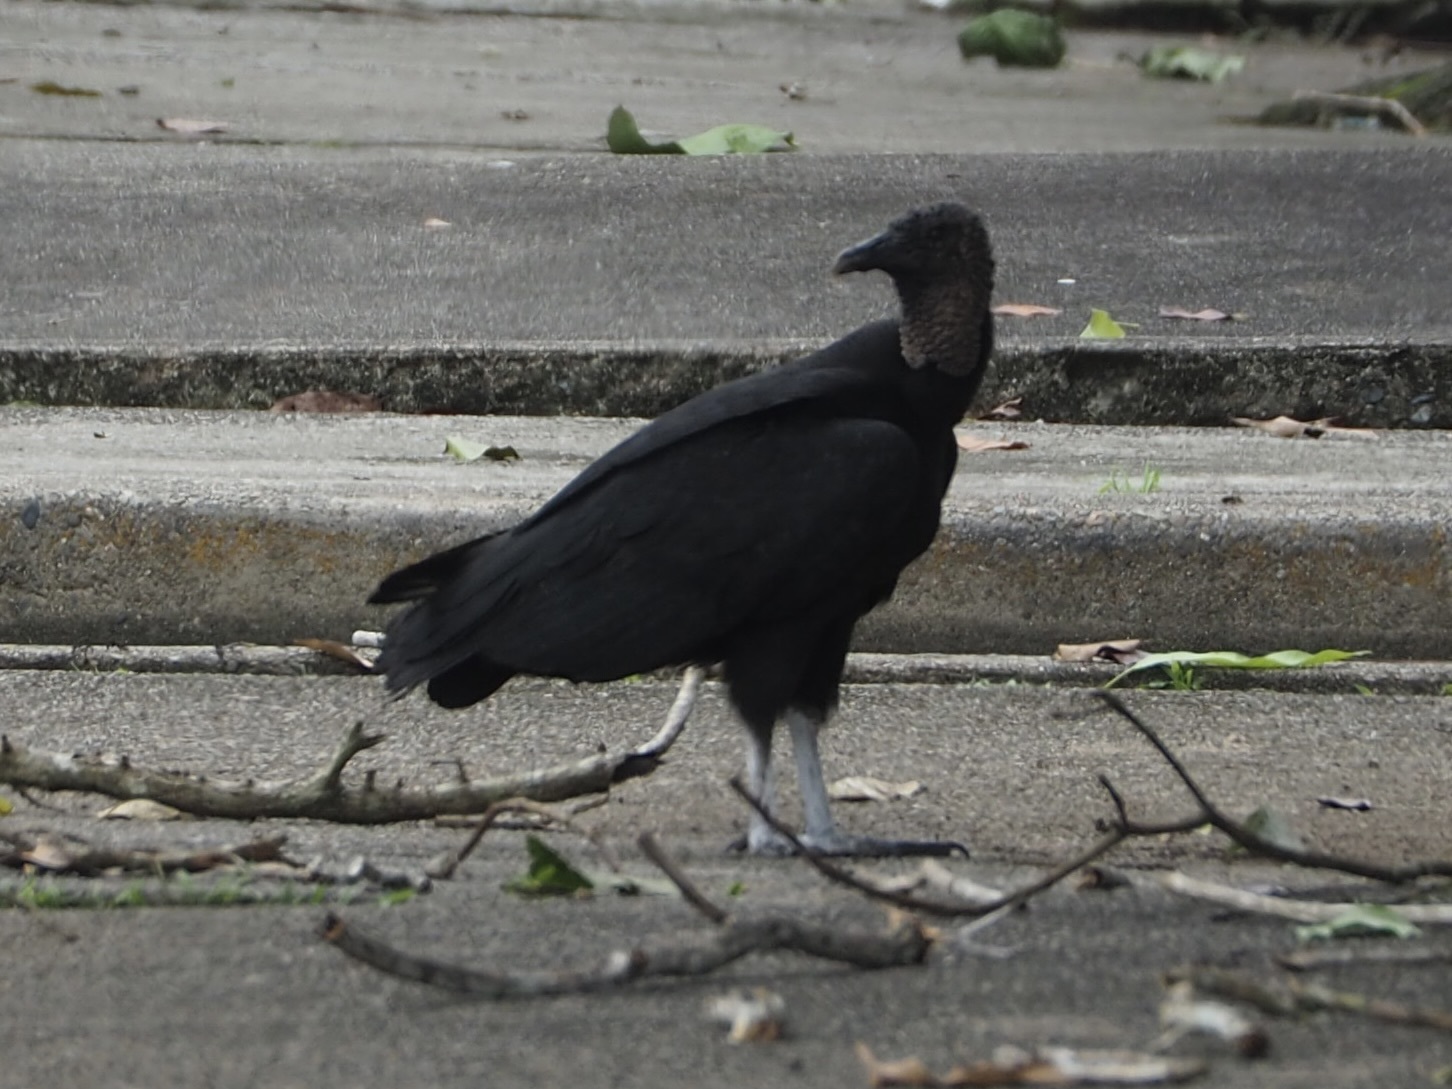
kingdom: Animalia
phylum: Chordata
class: Aves
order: Accipitriformes
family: Cathartidae
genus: Coragyps
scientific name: Coragyps atratus
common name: Black vulture
